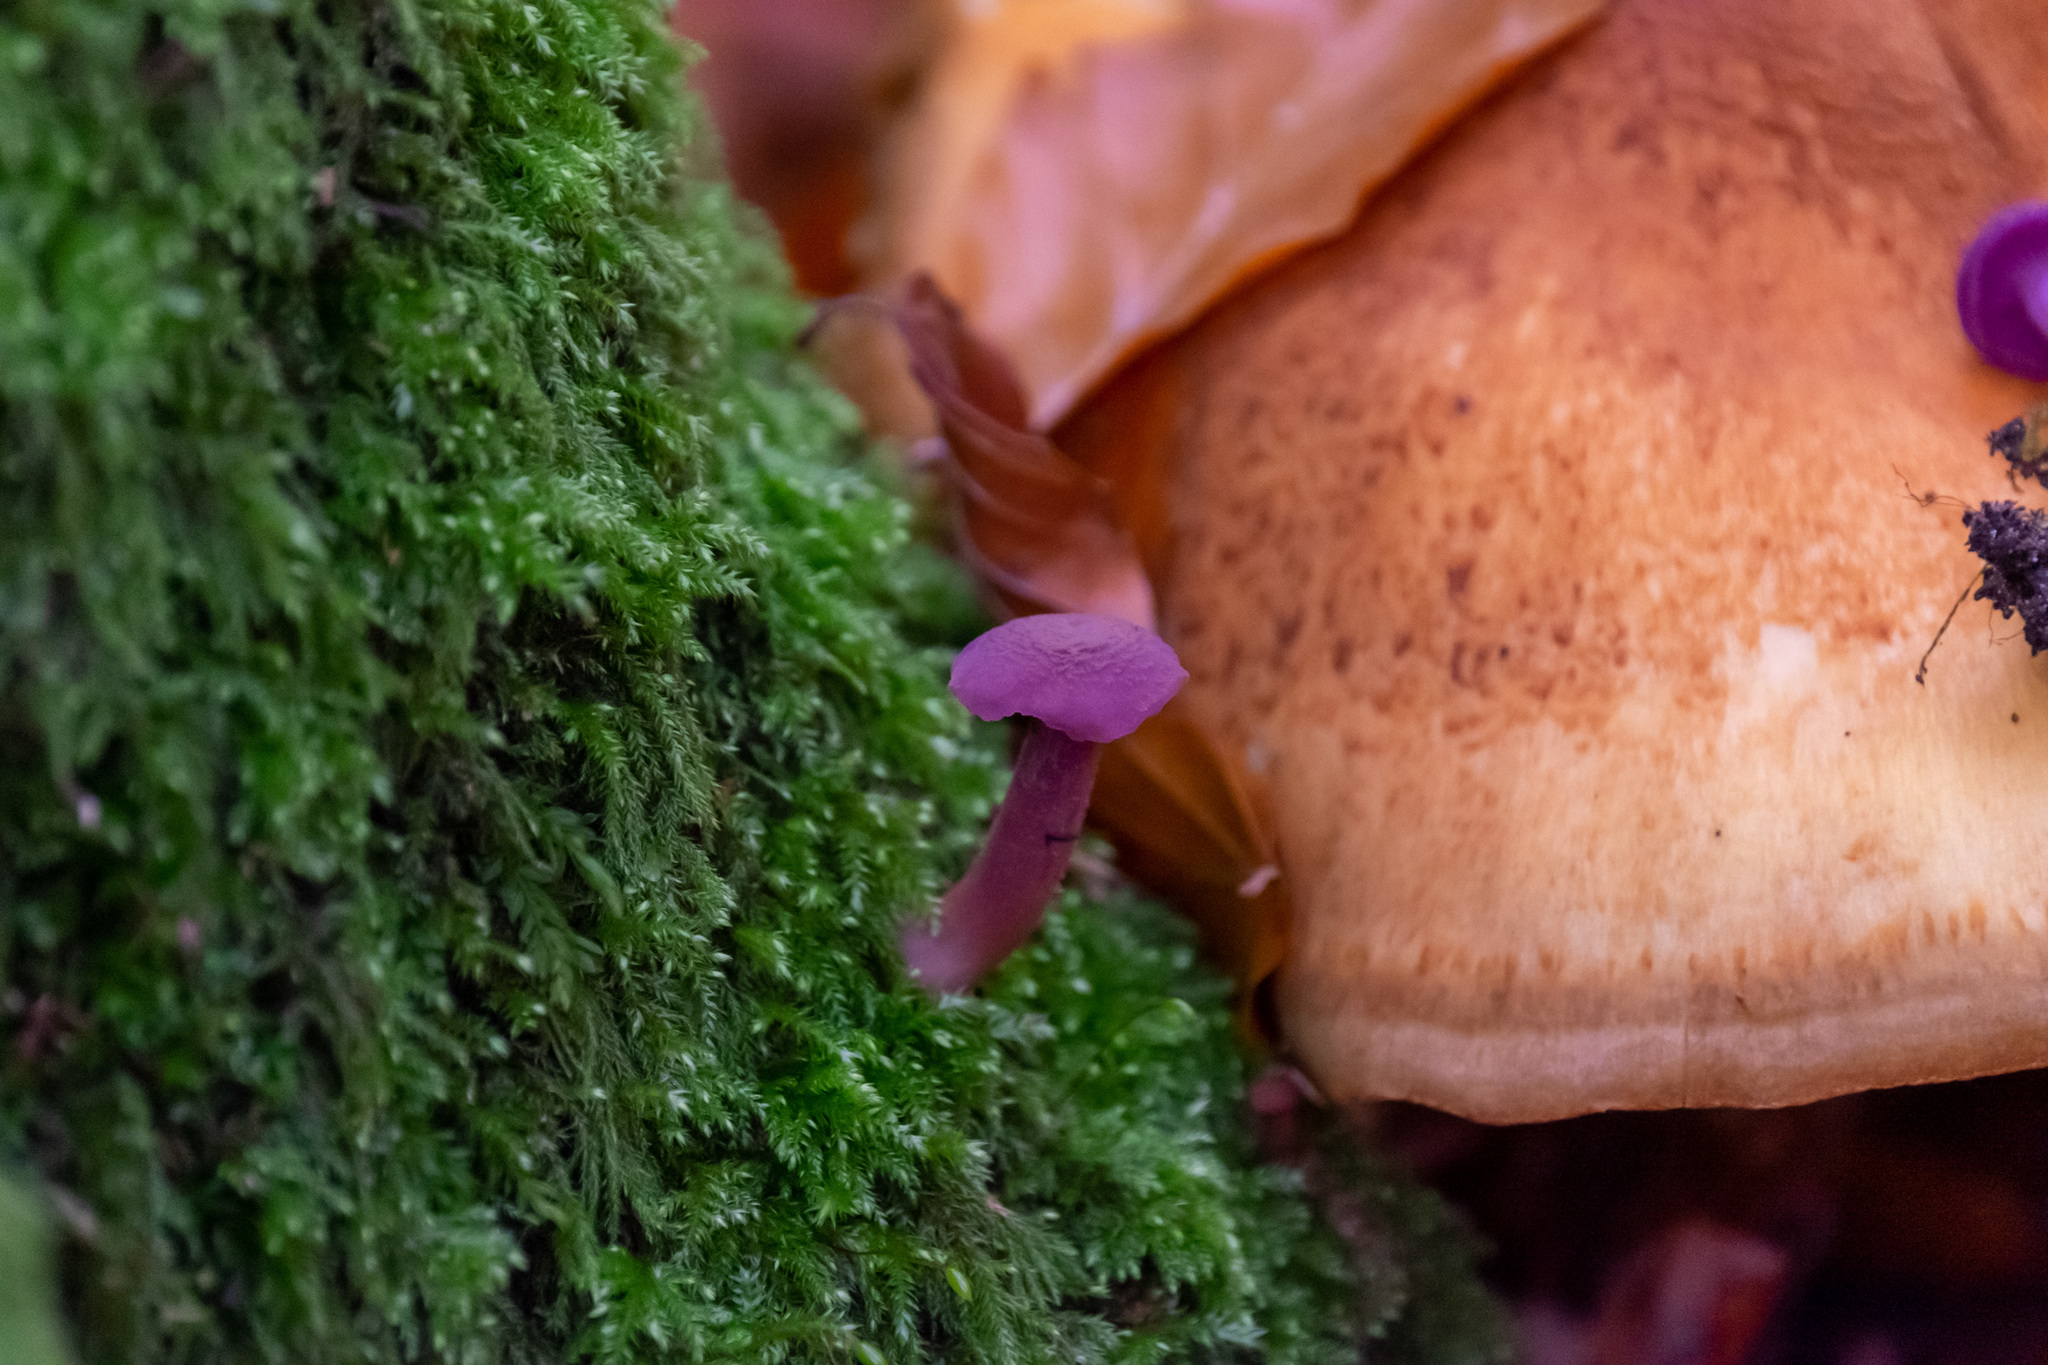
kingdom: Fungi
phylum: Basidiomycota
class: Agaricomycetes
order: Agaricales
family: Hydnangiaceae
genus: Laccaria
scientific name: Laccaria amethystina
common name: Amethyst deceiver
